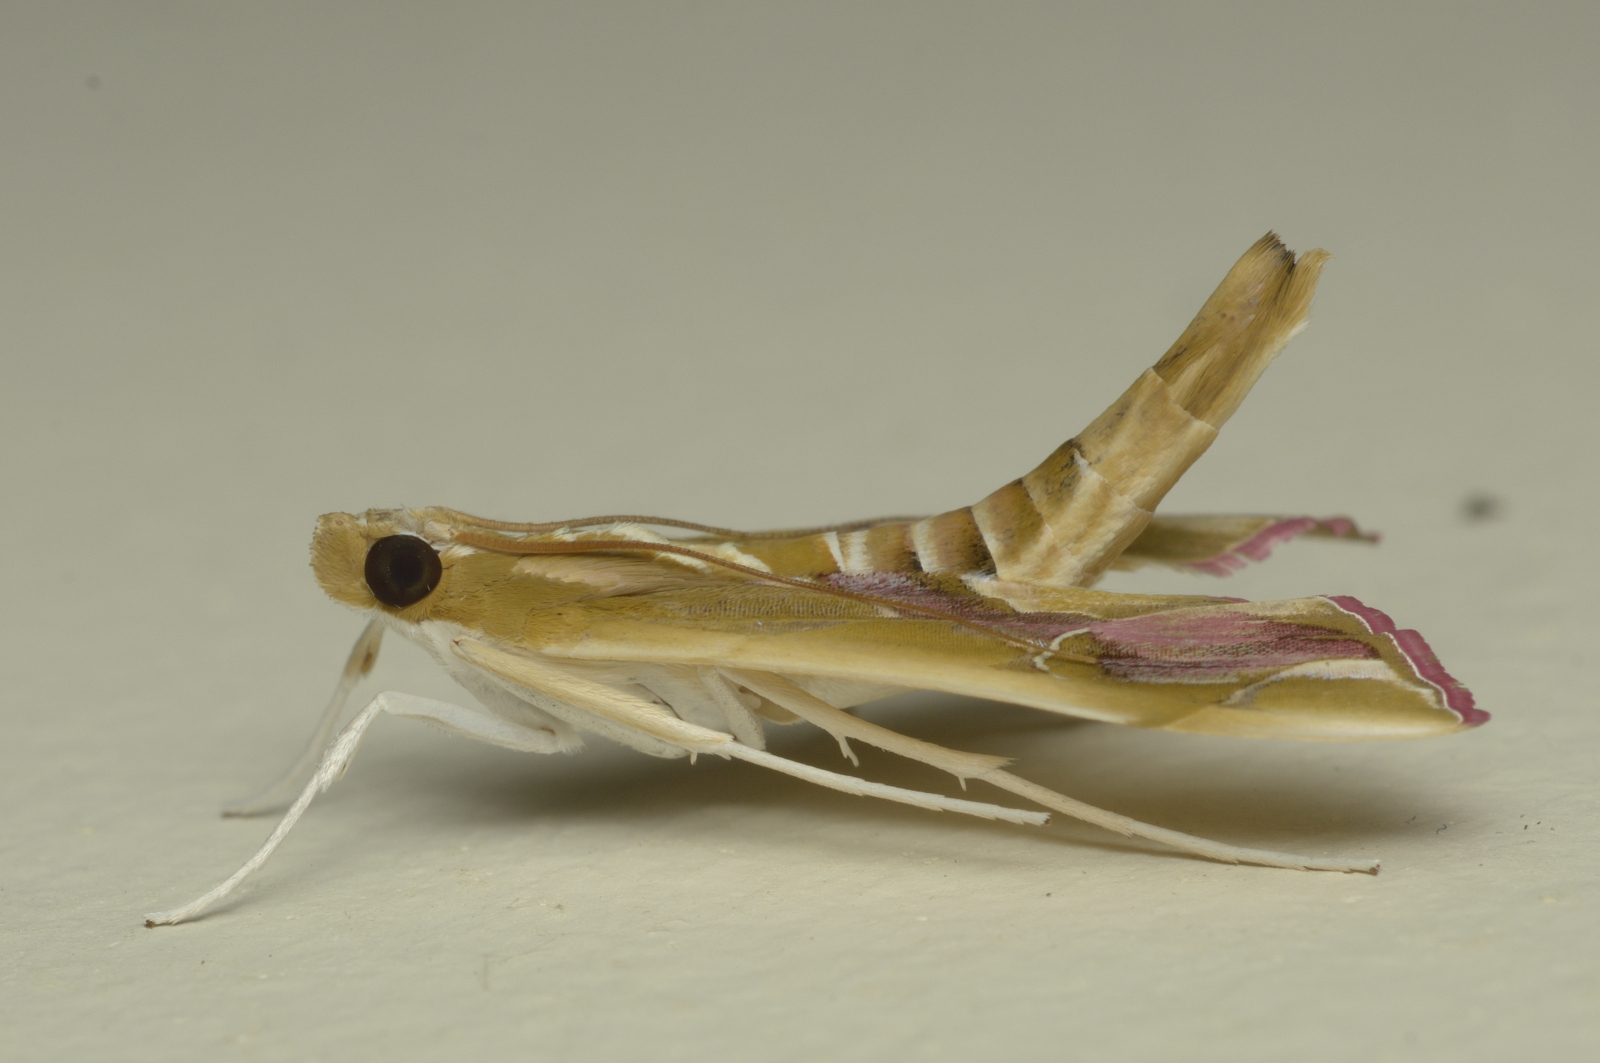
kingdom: Animalia
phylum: Arthropoda
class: Insecta
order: Lepidoptera
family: Crambidae
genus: Agathodes
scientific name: Agathodes ostentalis
